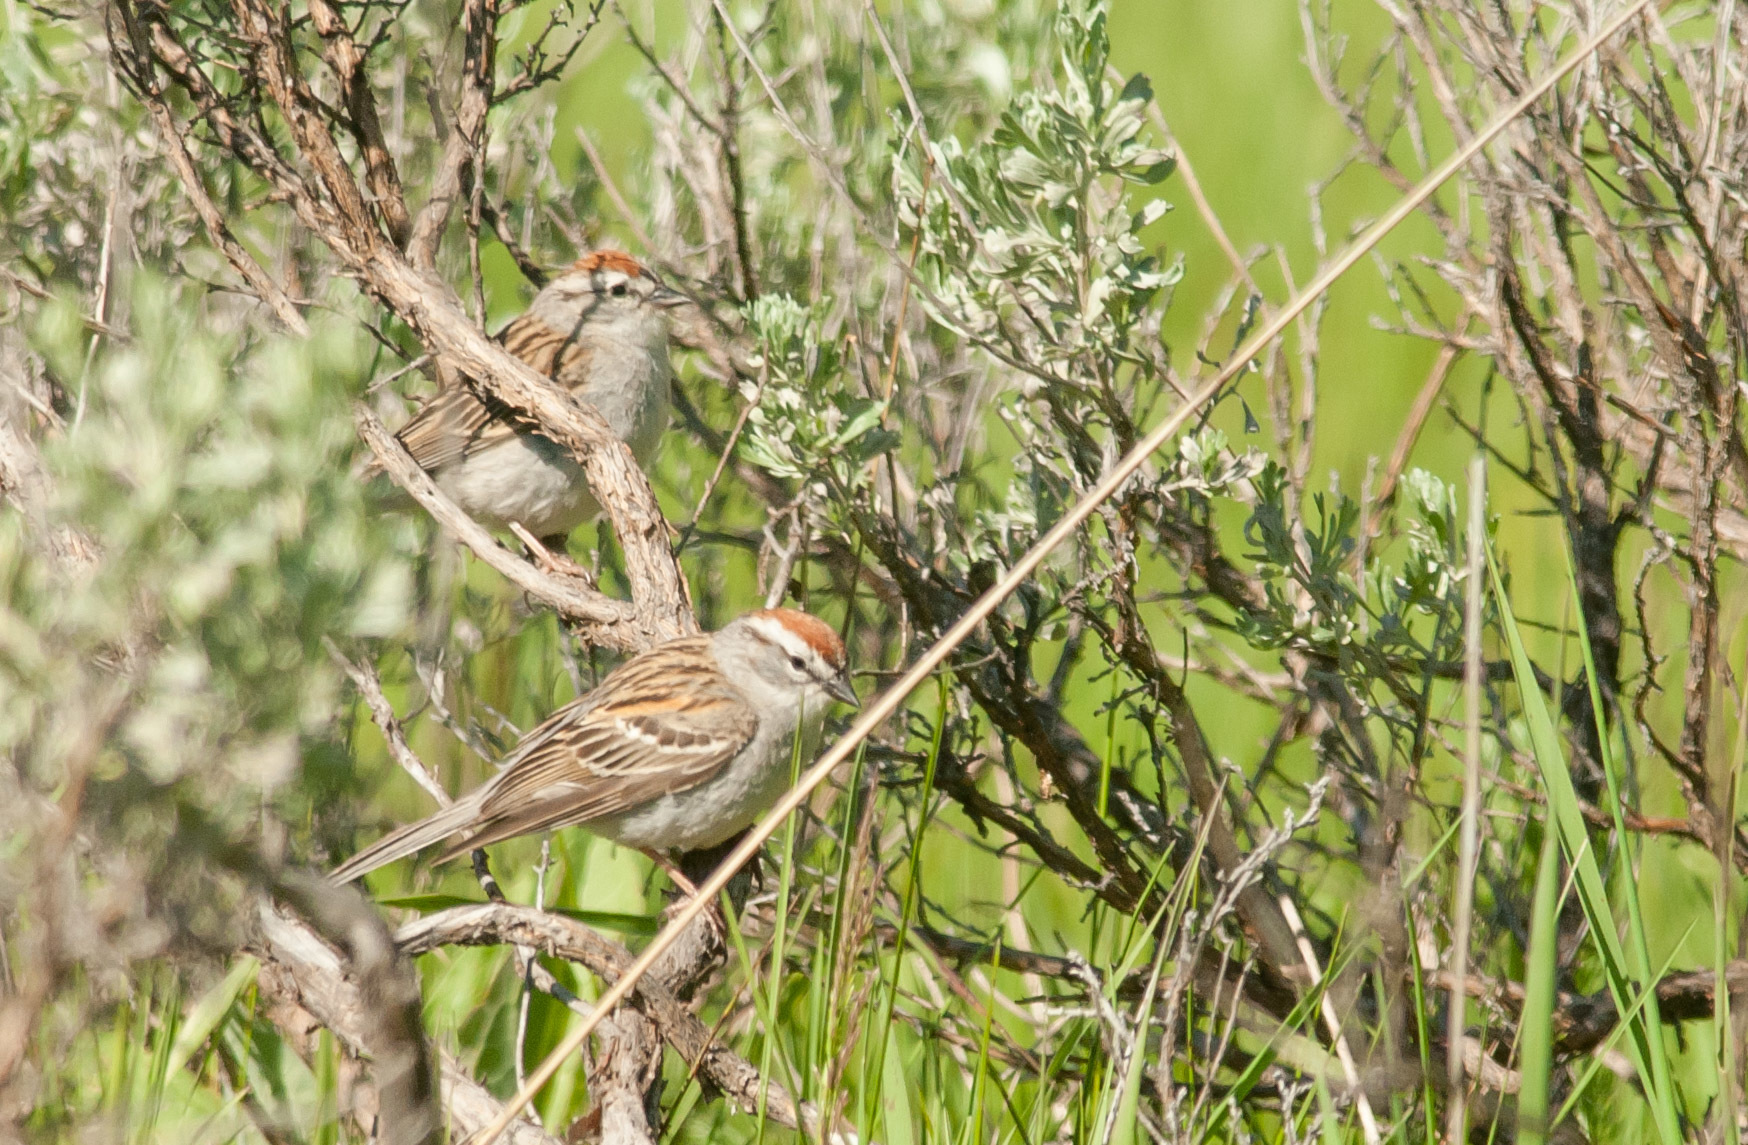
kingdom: Animalia
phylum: Chordata
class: Aves
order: Passeriformes
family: Passerellidae
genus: Spizella
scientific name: Spizella passerina
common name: Chipping sparrow
